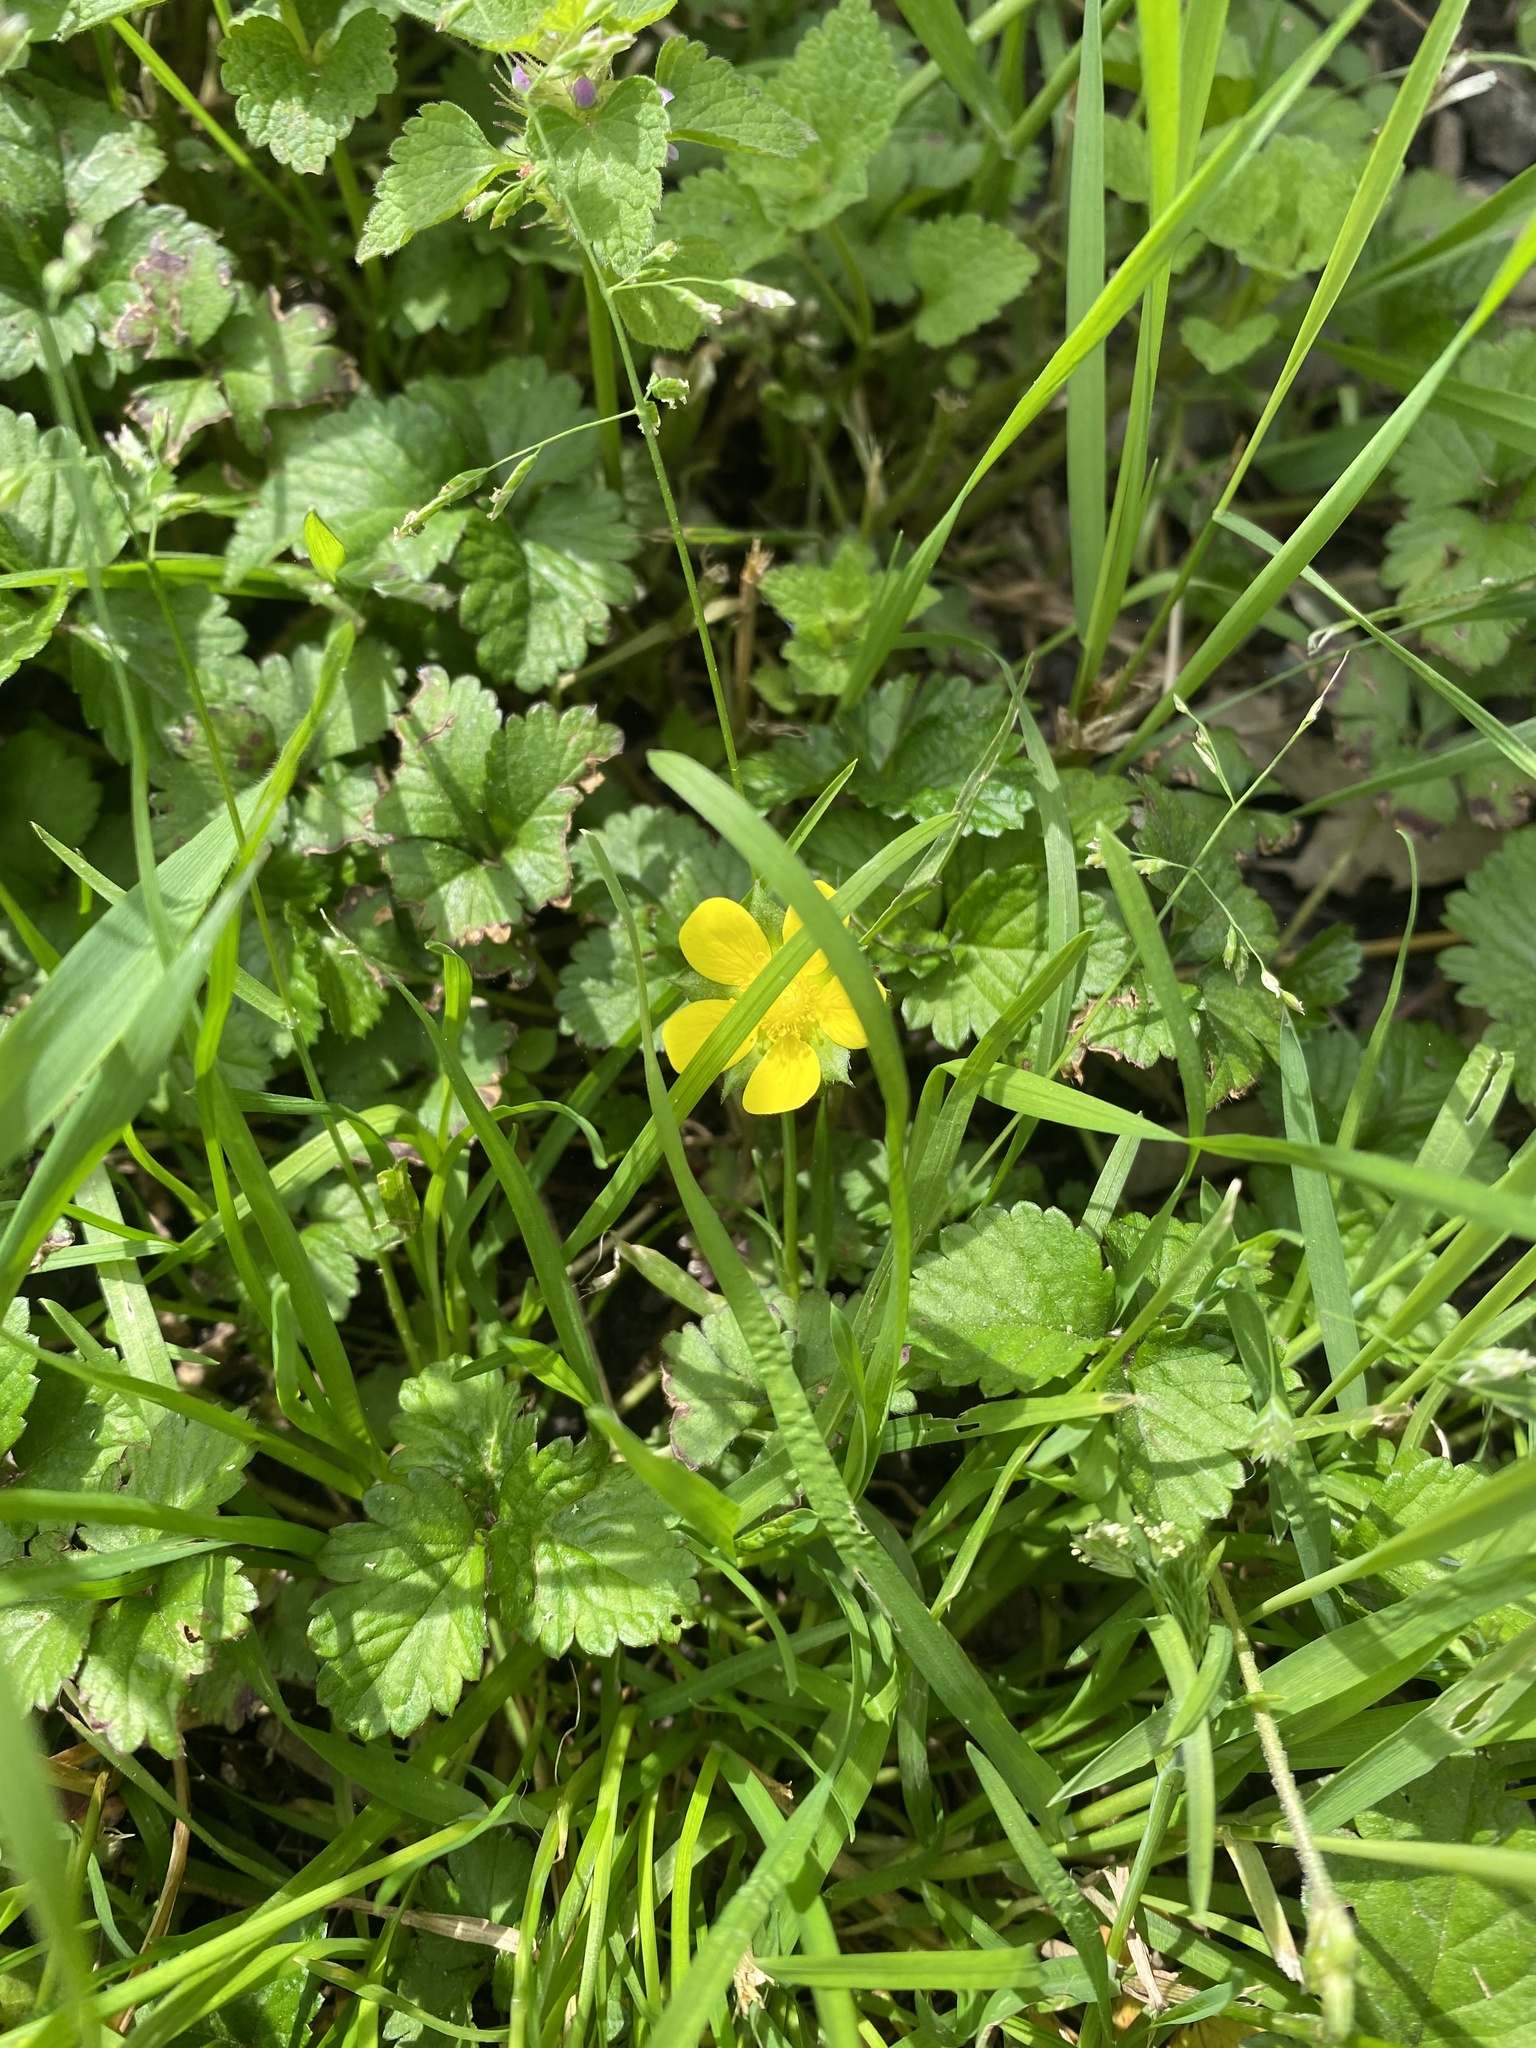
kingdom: Plantae
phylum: Tracheophyta
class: Magnoliopsida
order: Rosales
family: Rosaceae
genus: Potentilla
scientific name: Potentilla indica
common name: Yellow-flowered strawberry
